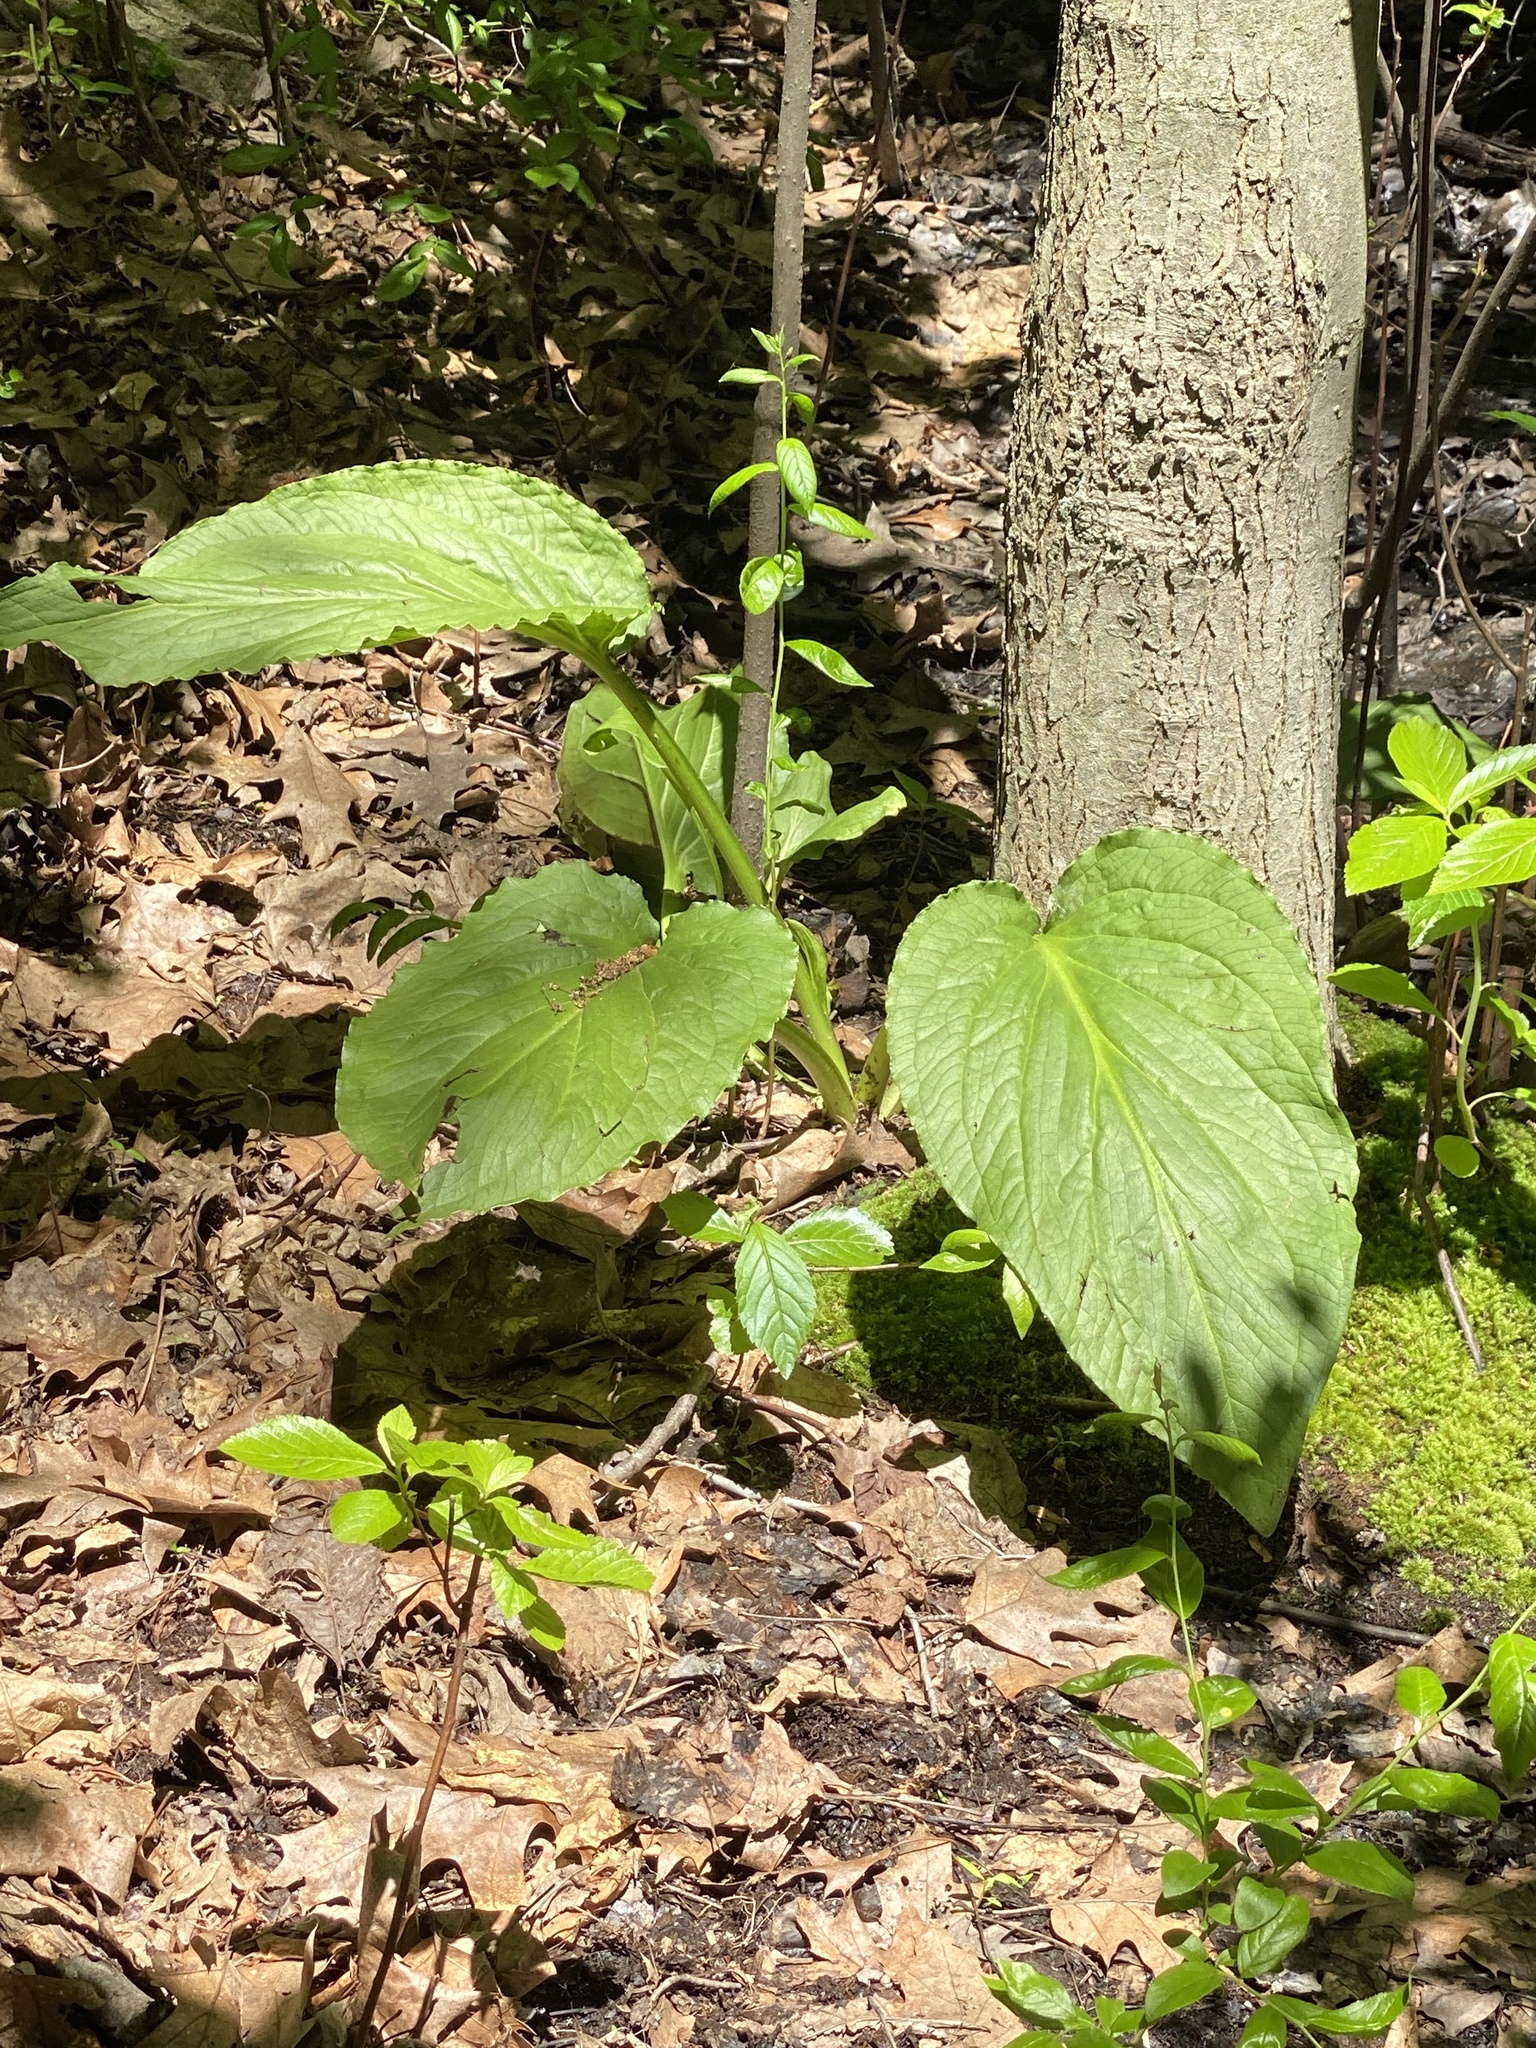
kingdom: Plantae
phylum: Tracheophyta
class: Liliopsida
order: Alismatales
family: Araceae
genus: Symplocarpus
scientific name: Symplocarpus foetidus
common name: Eastern skunk cabbage
